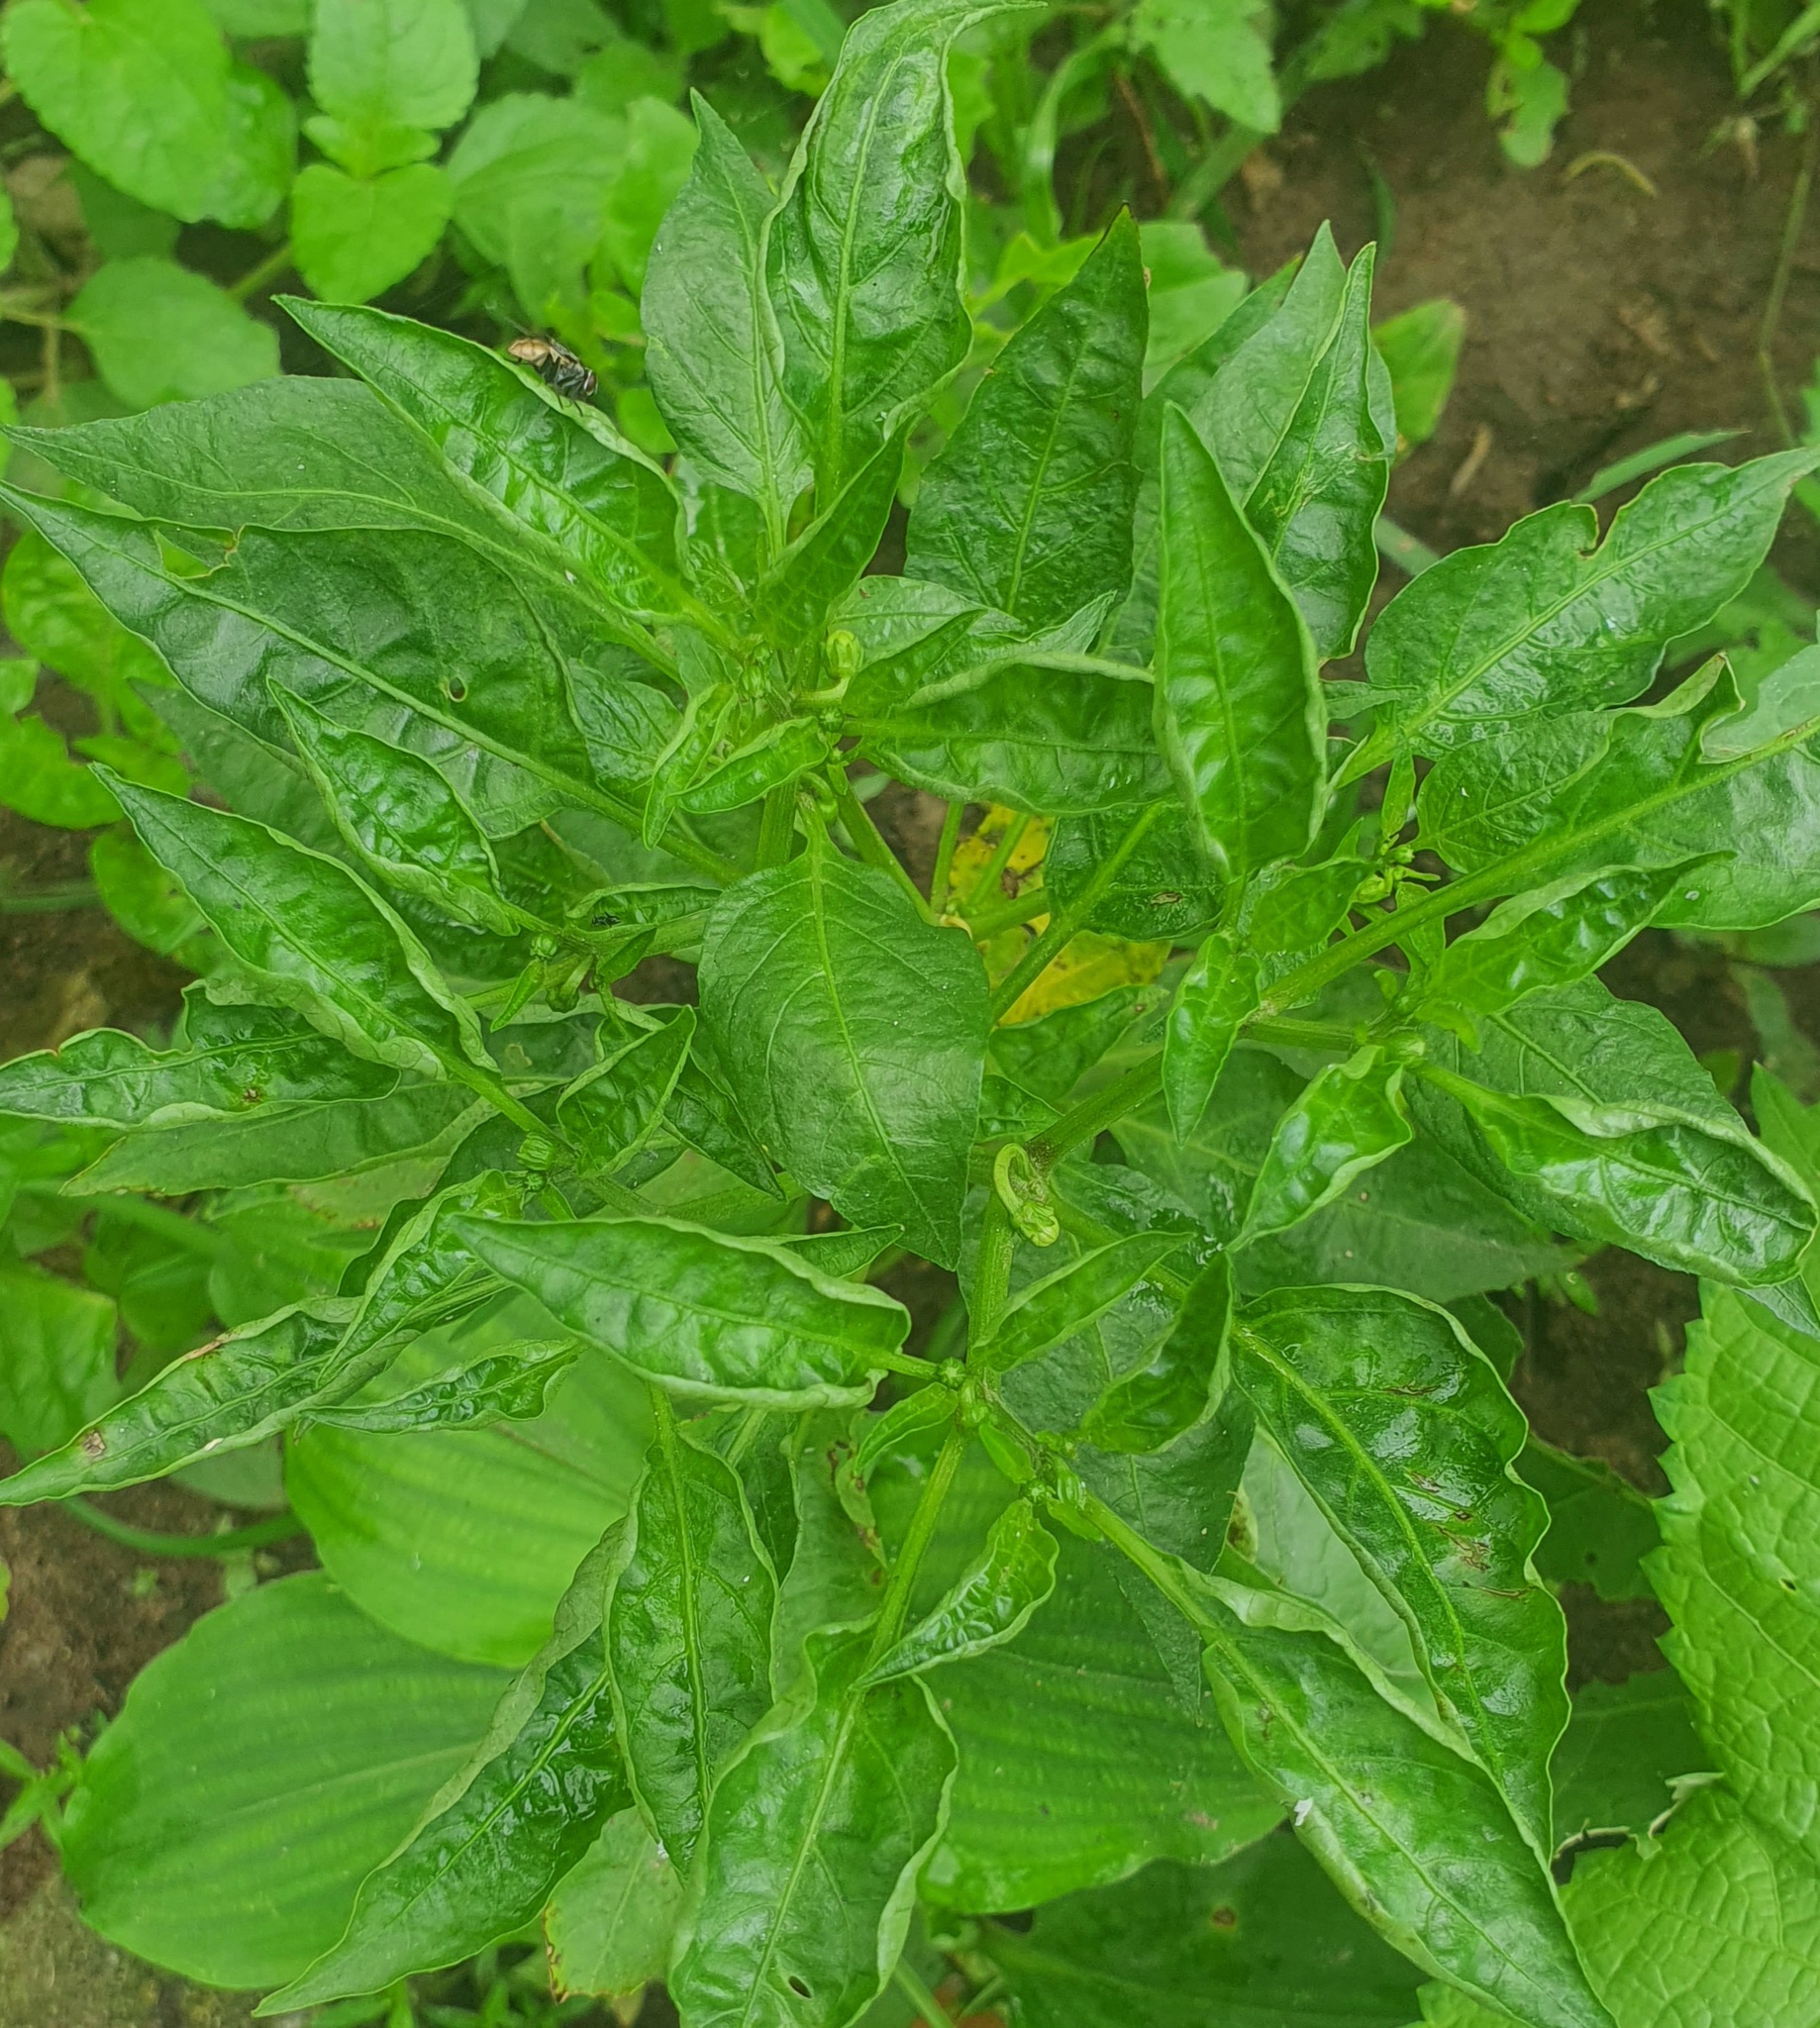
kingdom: Plantae
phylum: Tracheophyta
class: Magnoliopsida
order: Solanales
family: Solanaceae
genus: Capsicum
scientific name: Capsicum annuum
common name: Sweet pepper
